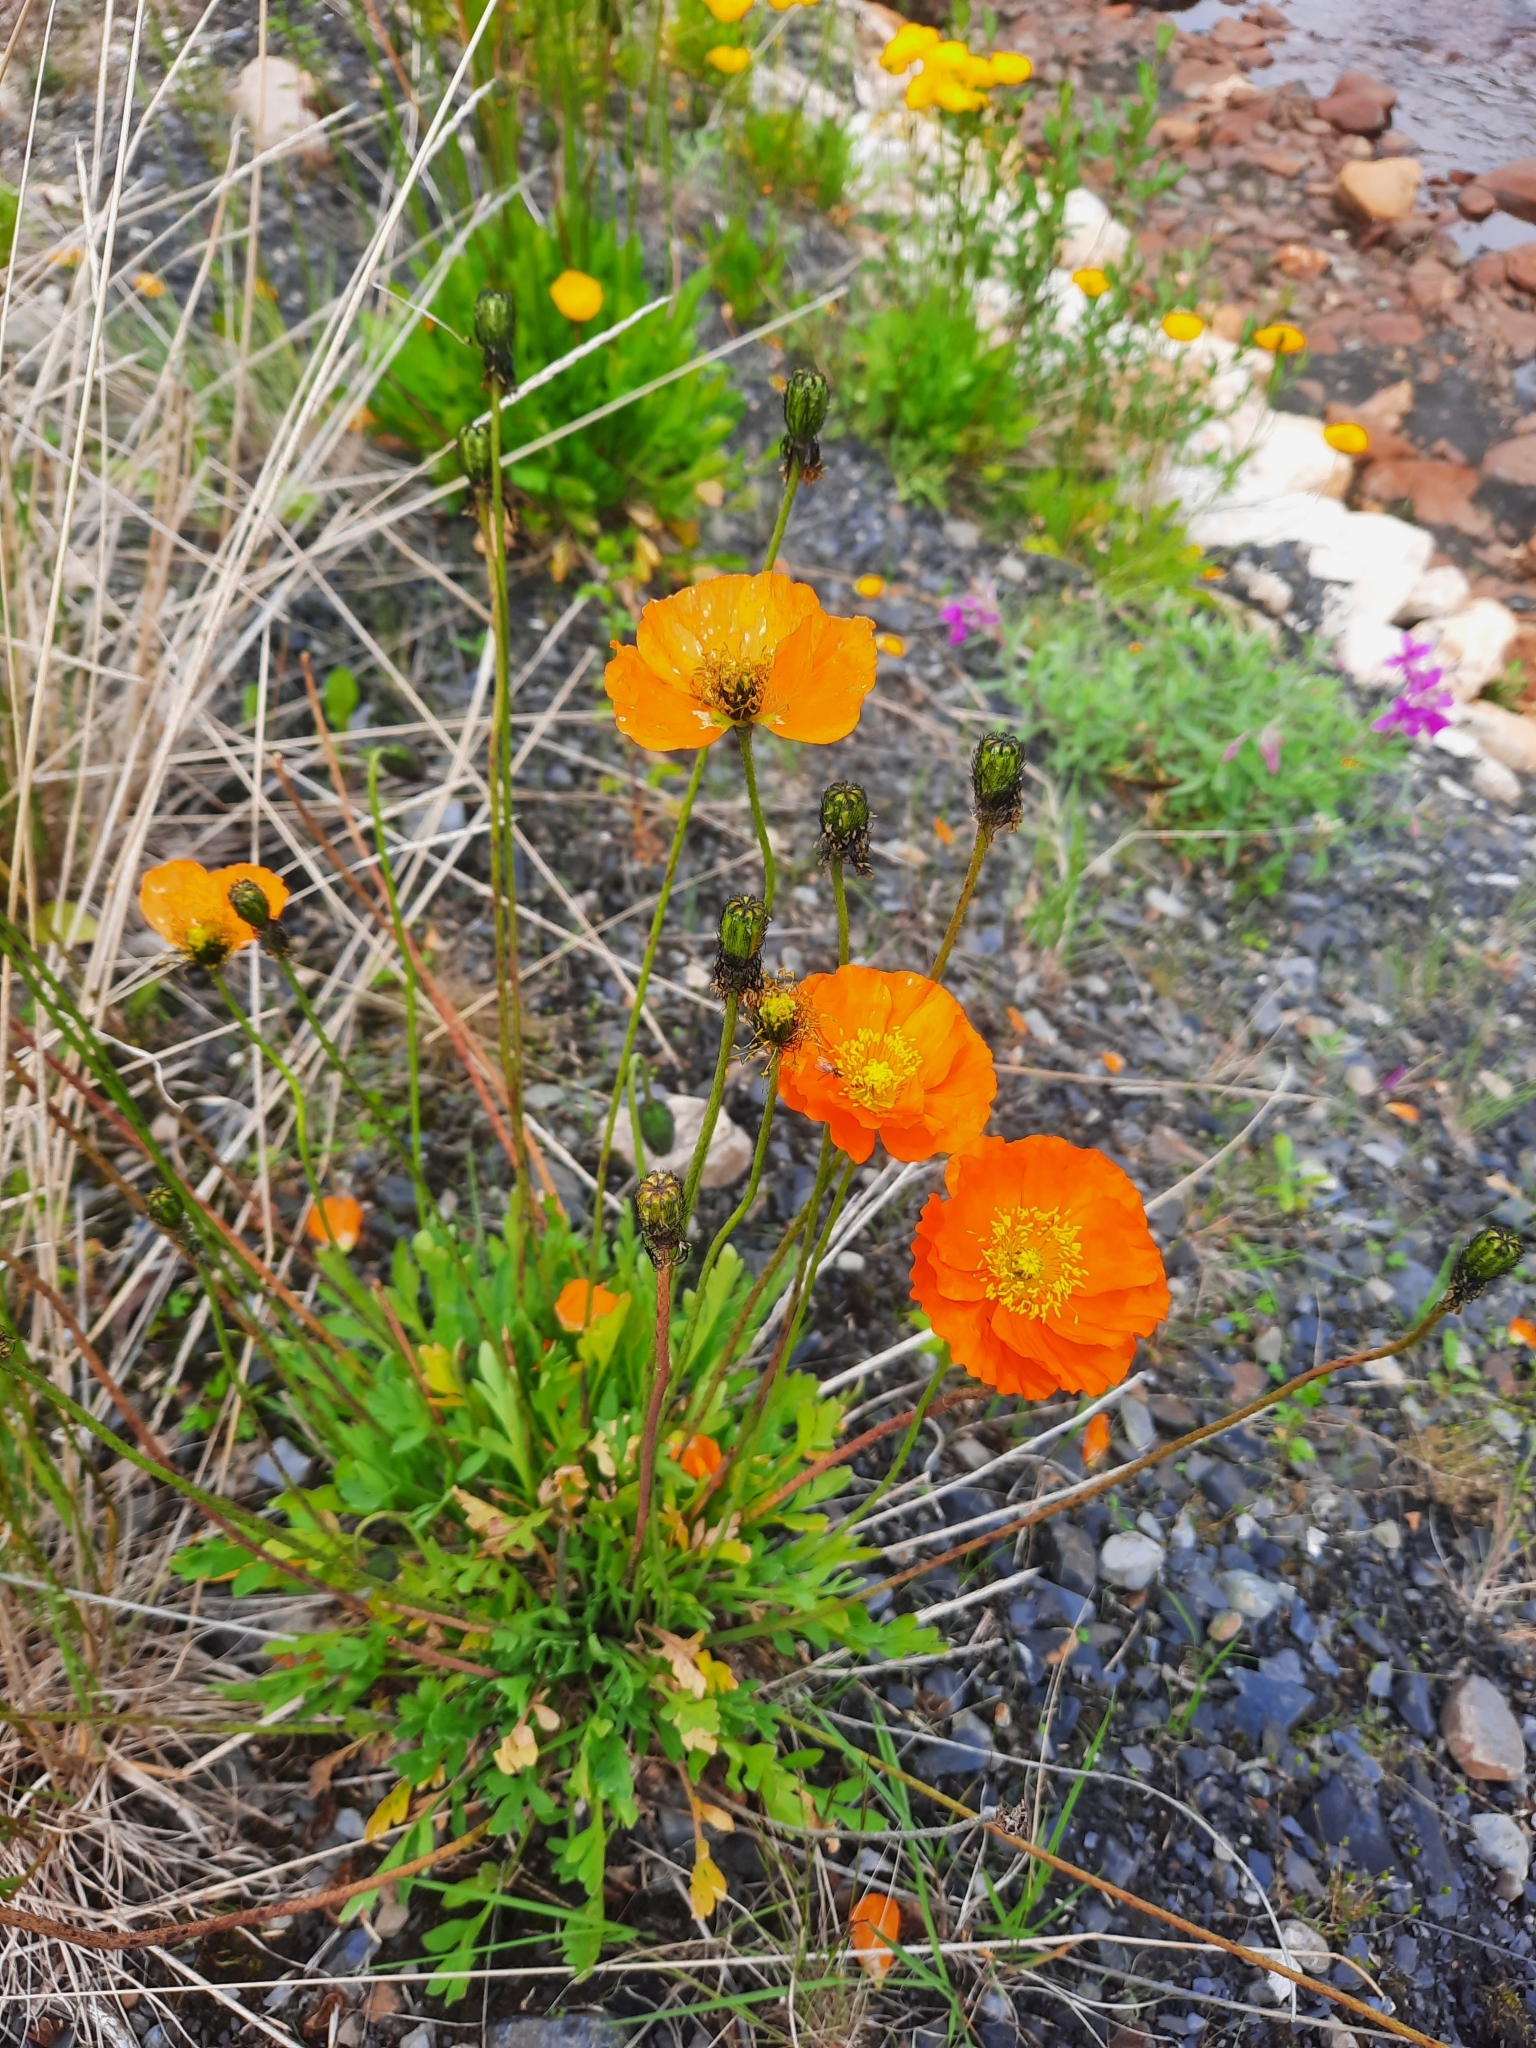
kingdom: Plantae
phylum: Tracheophyta
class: Magnoliopsida
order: Ranunculales
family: Papaveraceae
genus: Papaver
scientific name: Papaver mcconnellii
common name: Mcconnell's poppy
